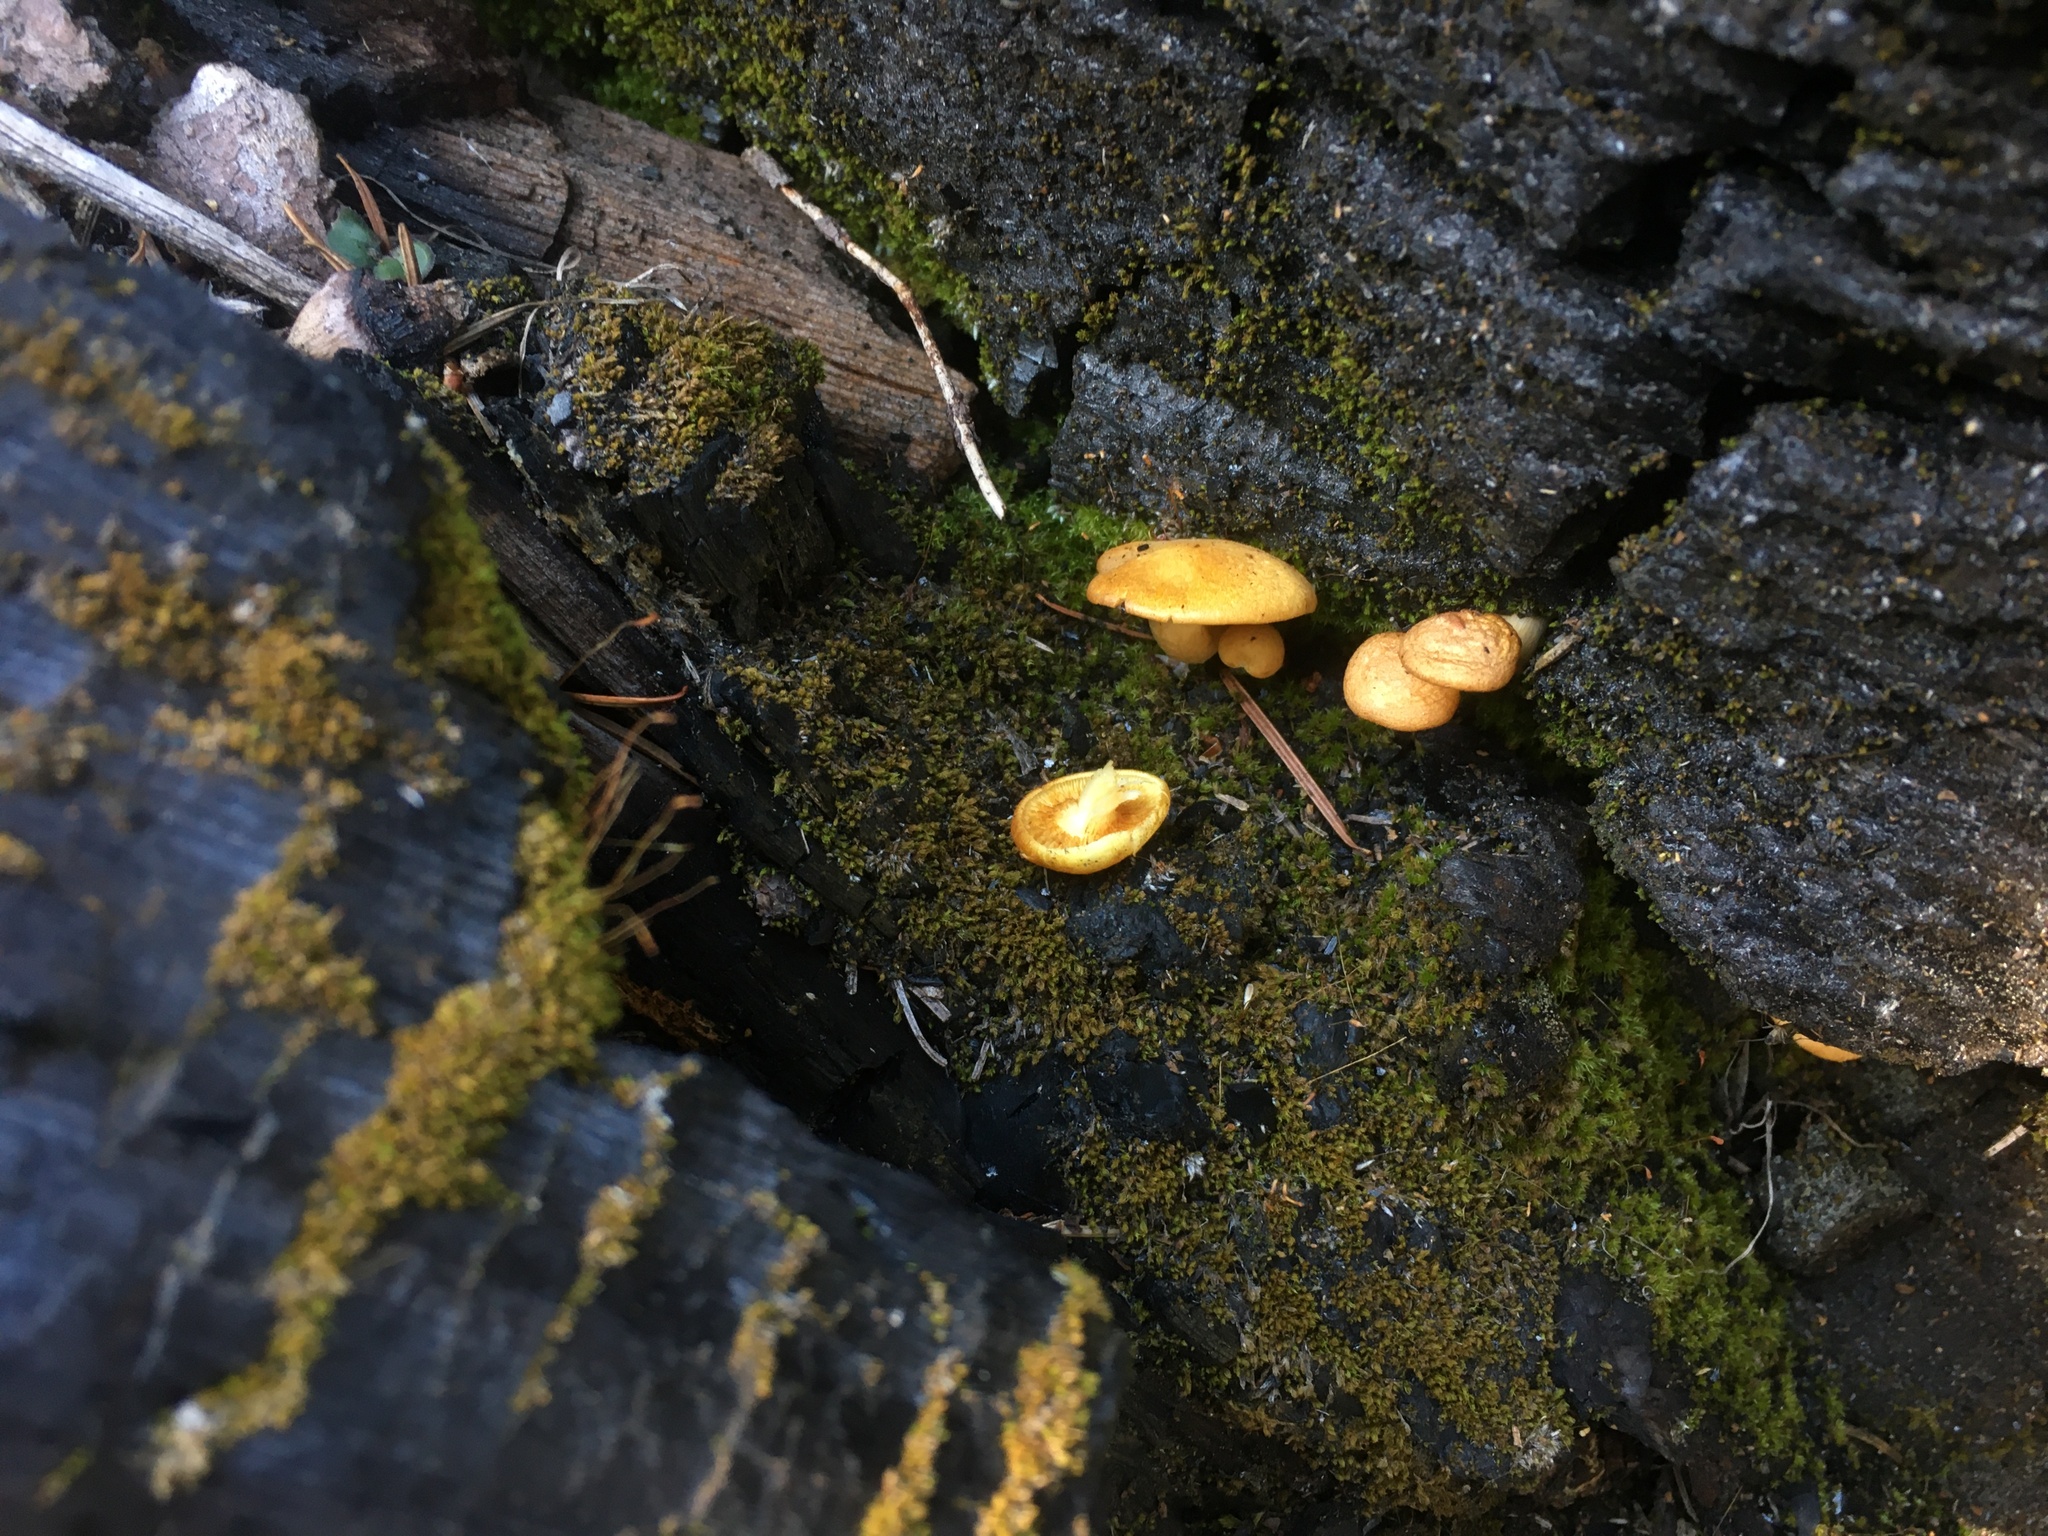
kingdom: Fungi
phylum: Basidiomycota
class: Agaricomycetes
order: Agaricales
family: Tricholomataceae
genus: Tricholomopsis
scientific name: Tricholomopsis sulfureoides
